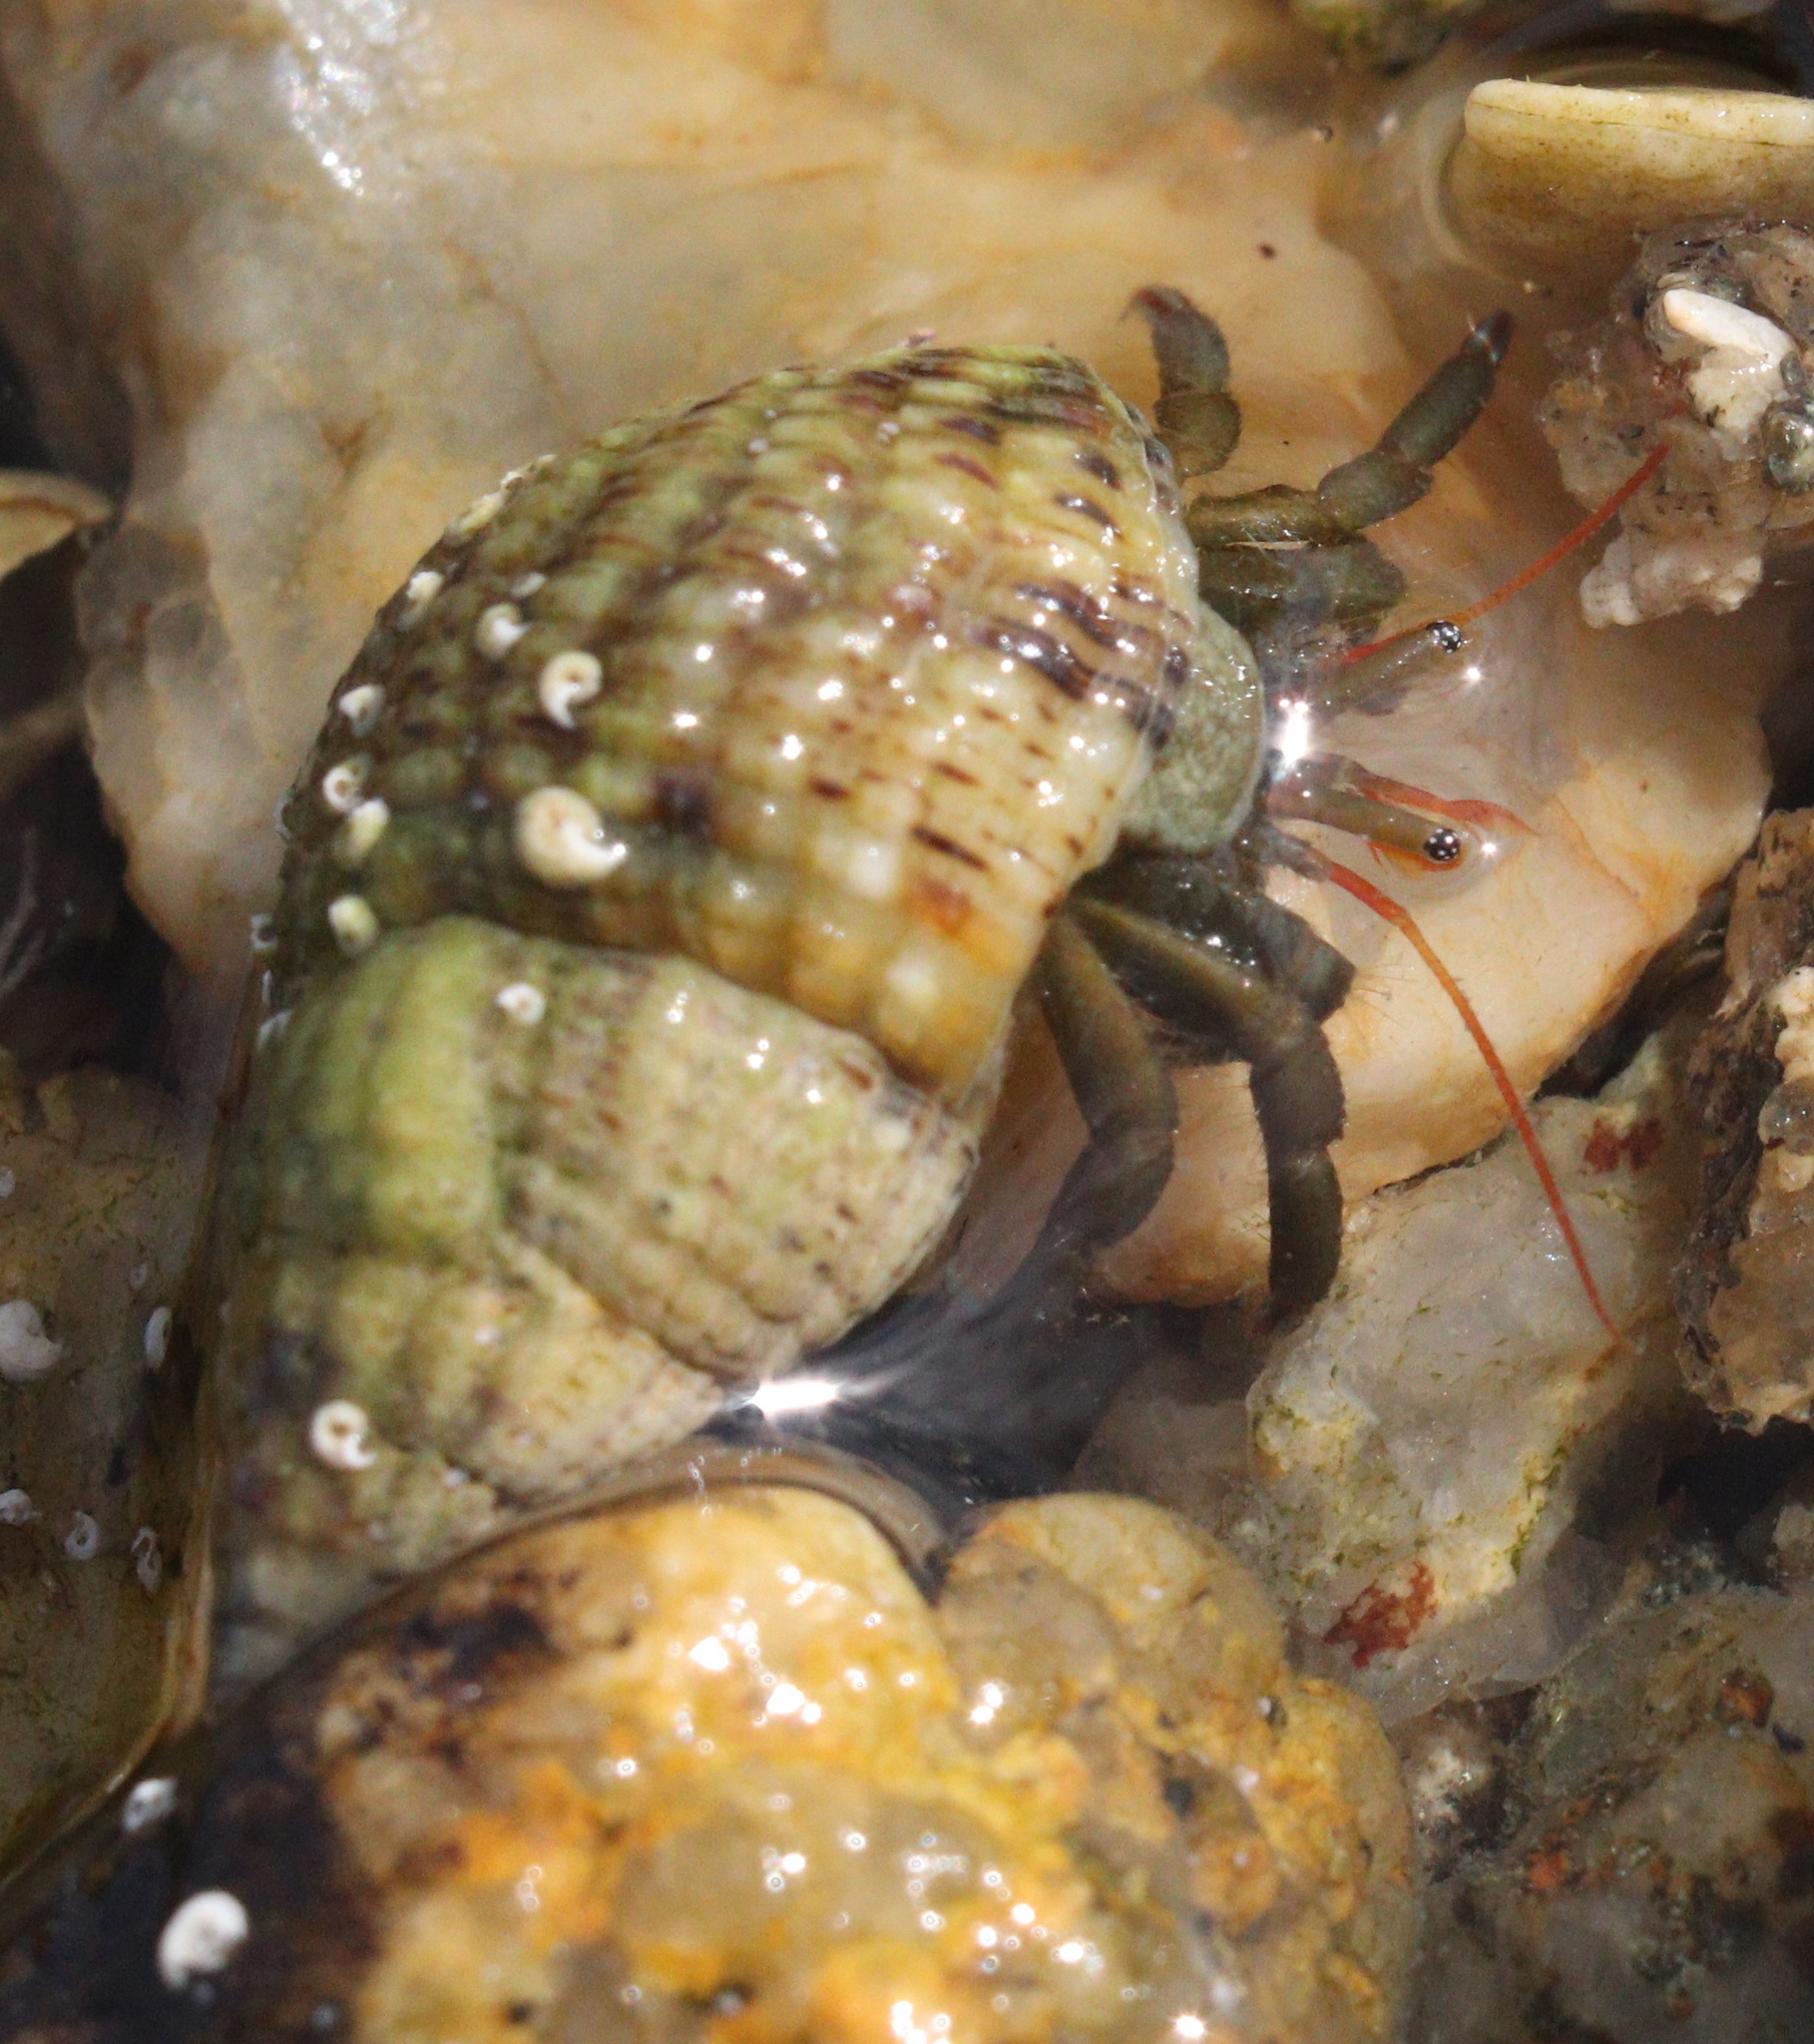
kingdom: Animalia
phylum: Arthropoda
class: Malacostraca
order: Decapoda
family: Diogenidae
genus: Clibanarius
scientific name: Clibanarius erythropus
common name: Hermit crab
